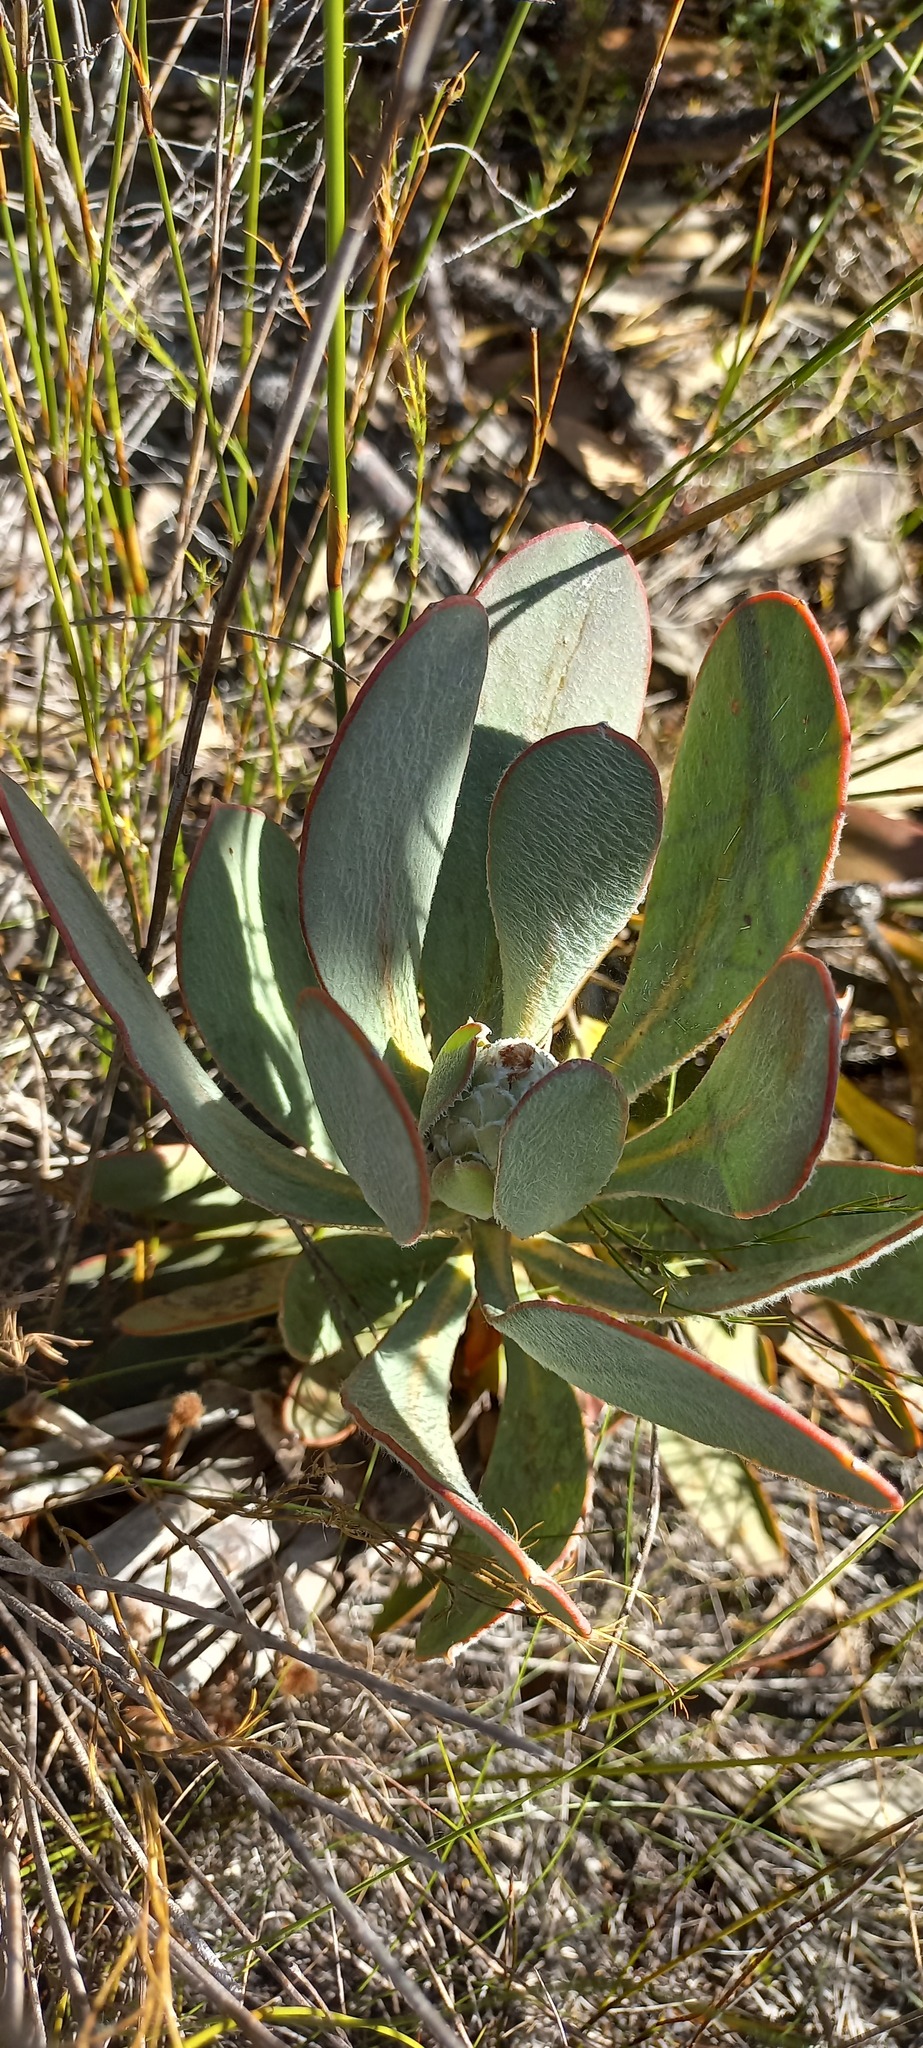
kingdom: Plantae
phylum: Tracheophyta
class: Magnoliopsida
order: Proteales
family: Proteaceae
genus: Protea
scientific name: Protea speciosa
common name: Brown-beard sugarbush
